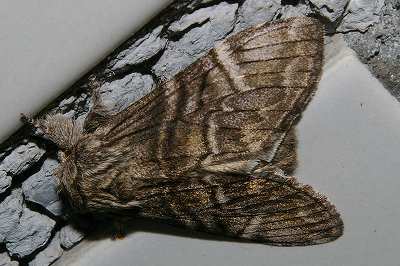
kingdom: Animalia
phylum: Arthropoda
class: Insecta
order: Lepidoptera
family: Notodontidae
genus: Epodonta
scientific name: Epodonta lineata
